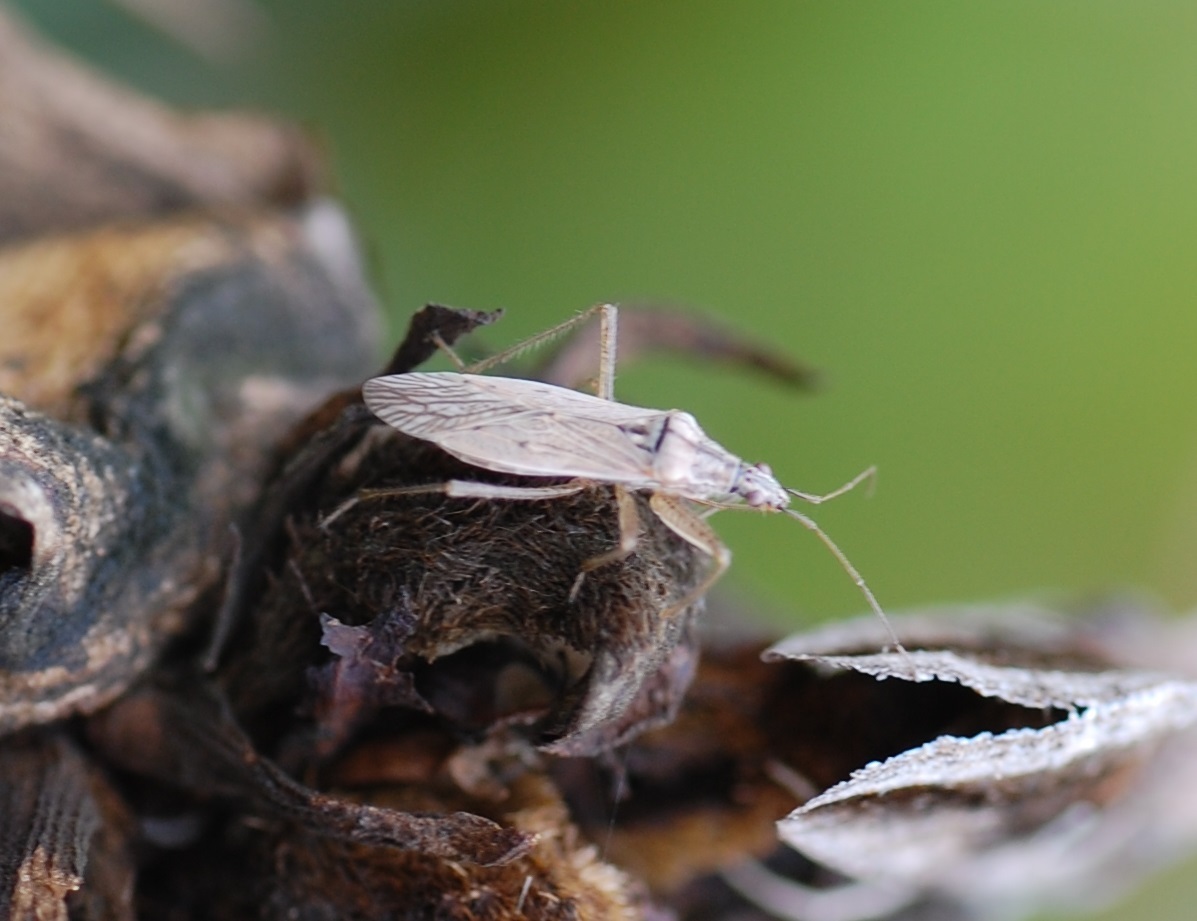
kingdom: Animalia
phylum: Arthropoda
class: Insecta
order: Hemiptera
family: Nabidae
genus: Nabis
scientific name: Nabis americoferus
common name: Common damsel bug
